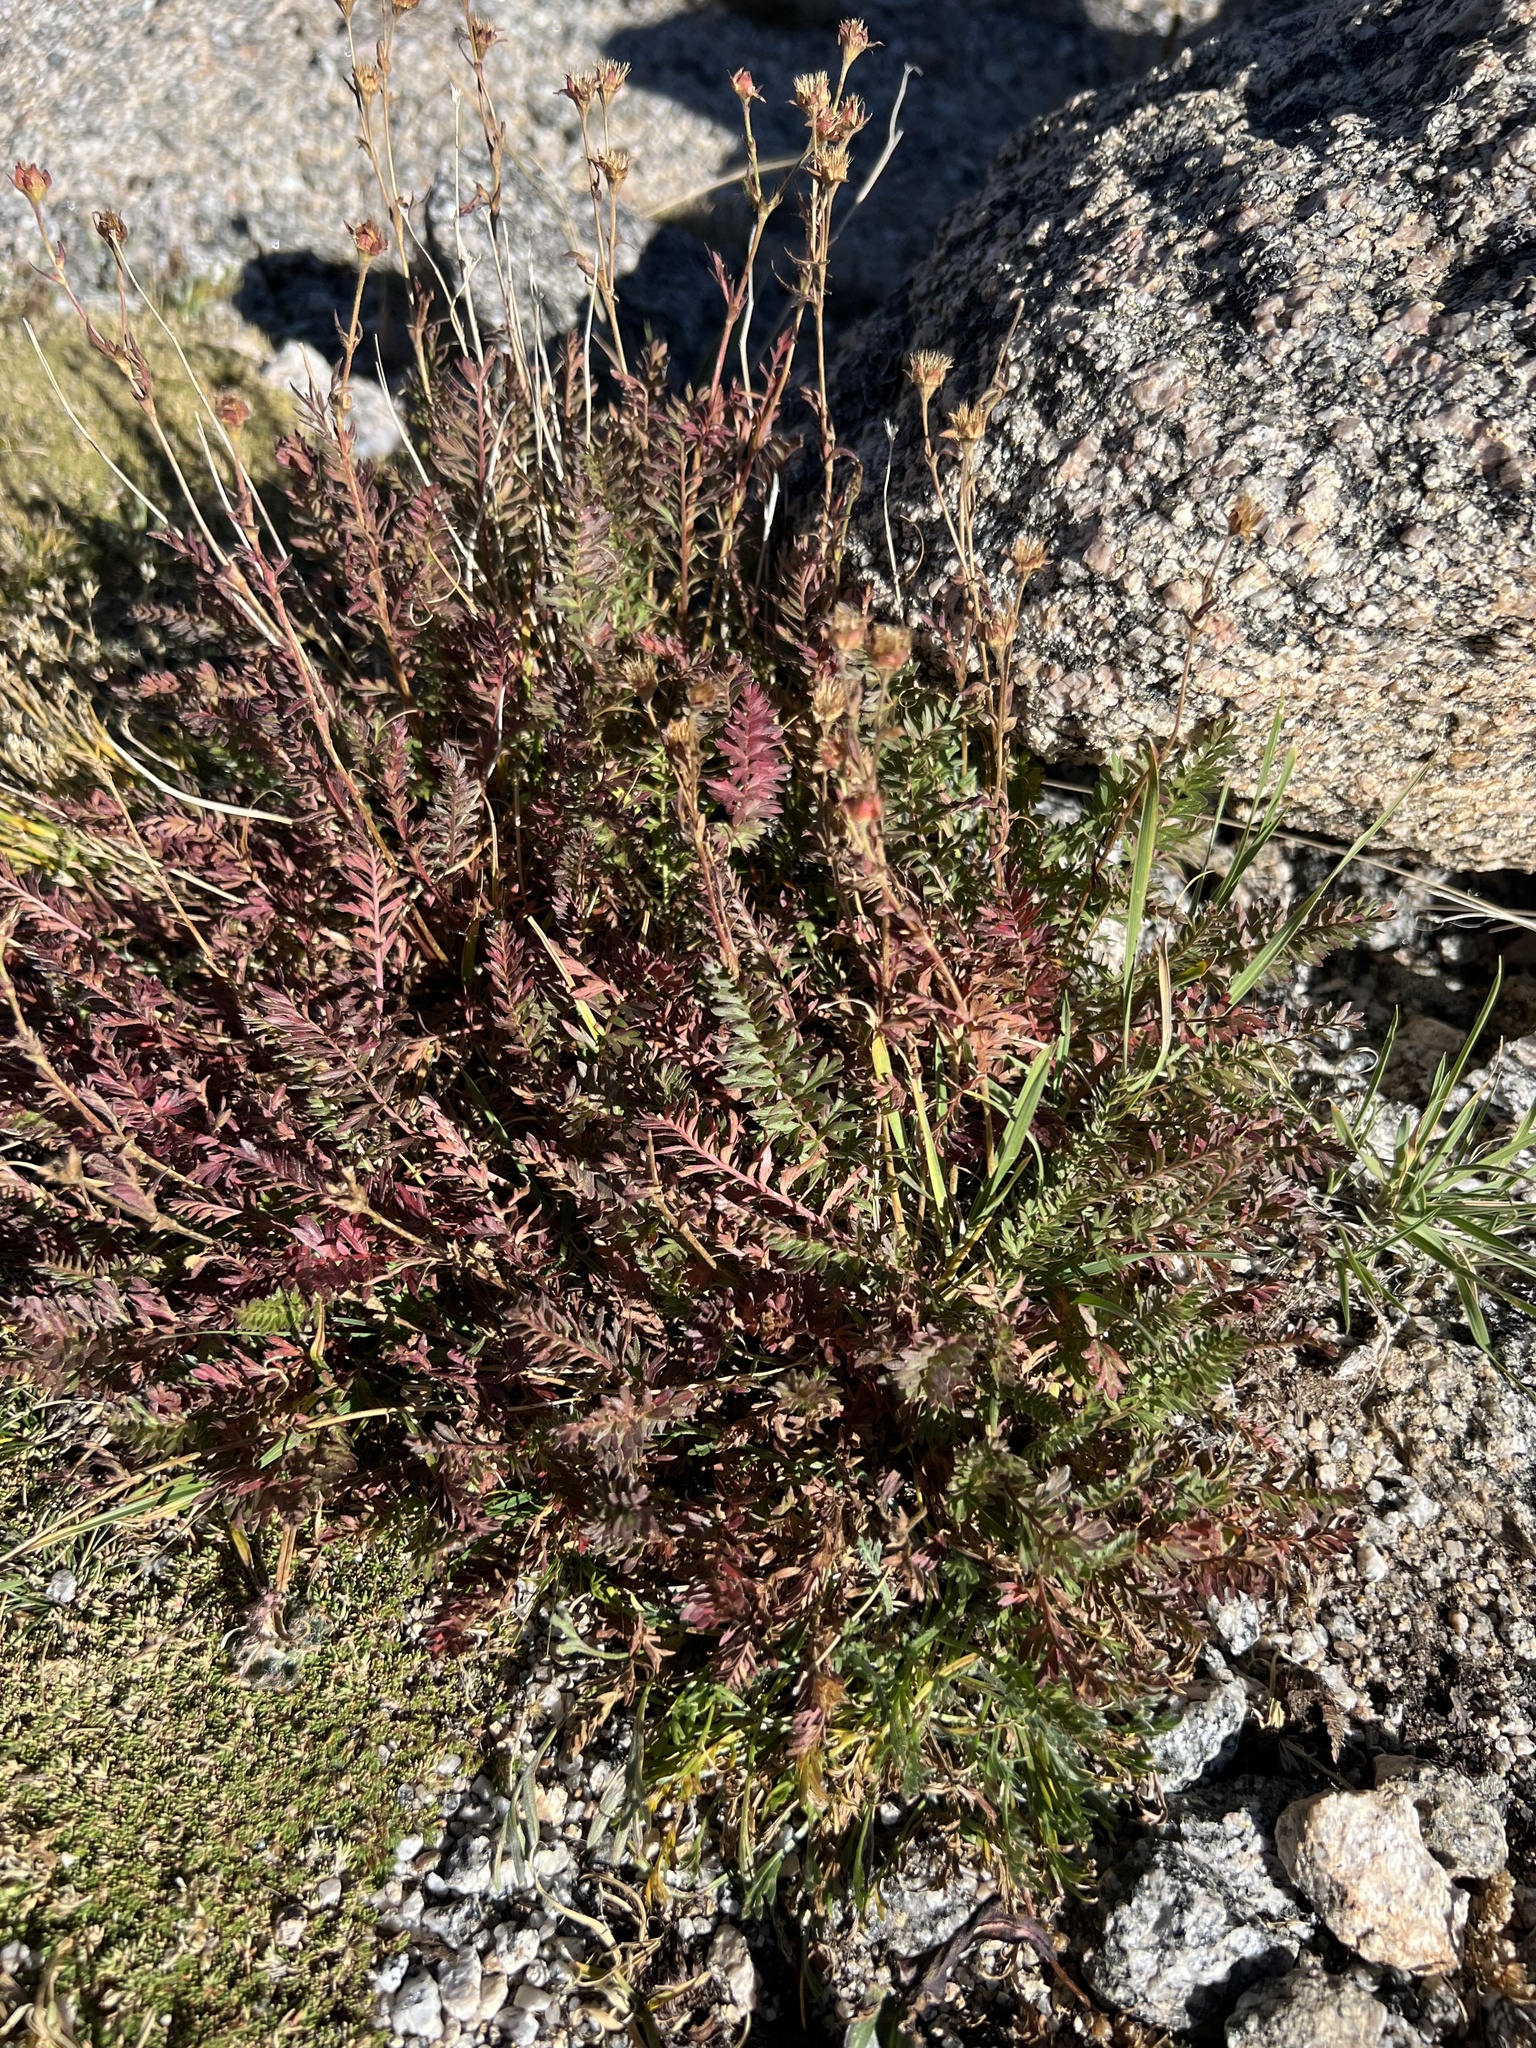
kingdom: Plantae
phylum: Tracheophyta
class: Magnoliopsida
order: Rosales
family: Rosaceae
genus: Geum
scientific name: Geum rossii
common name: Alpine avens
